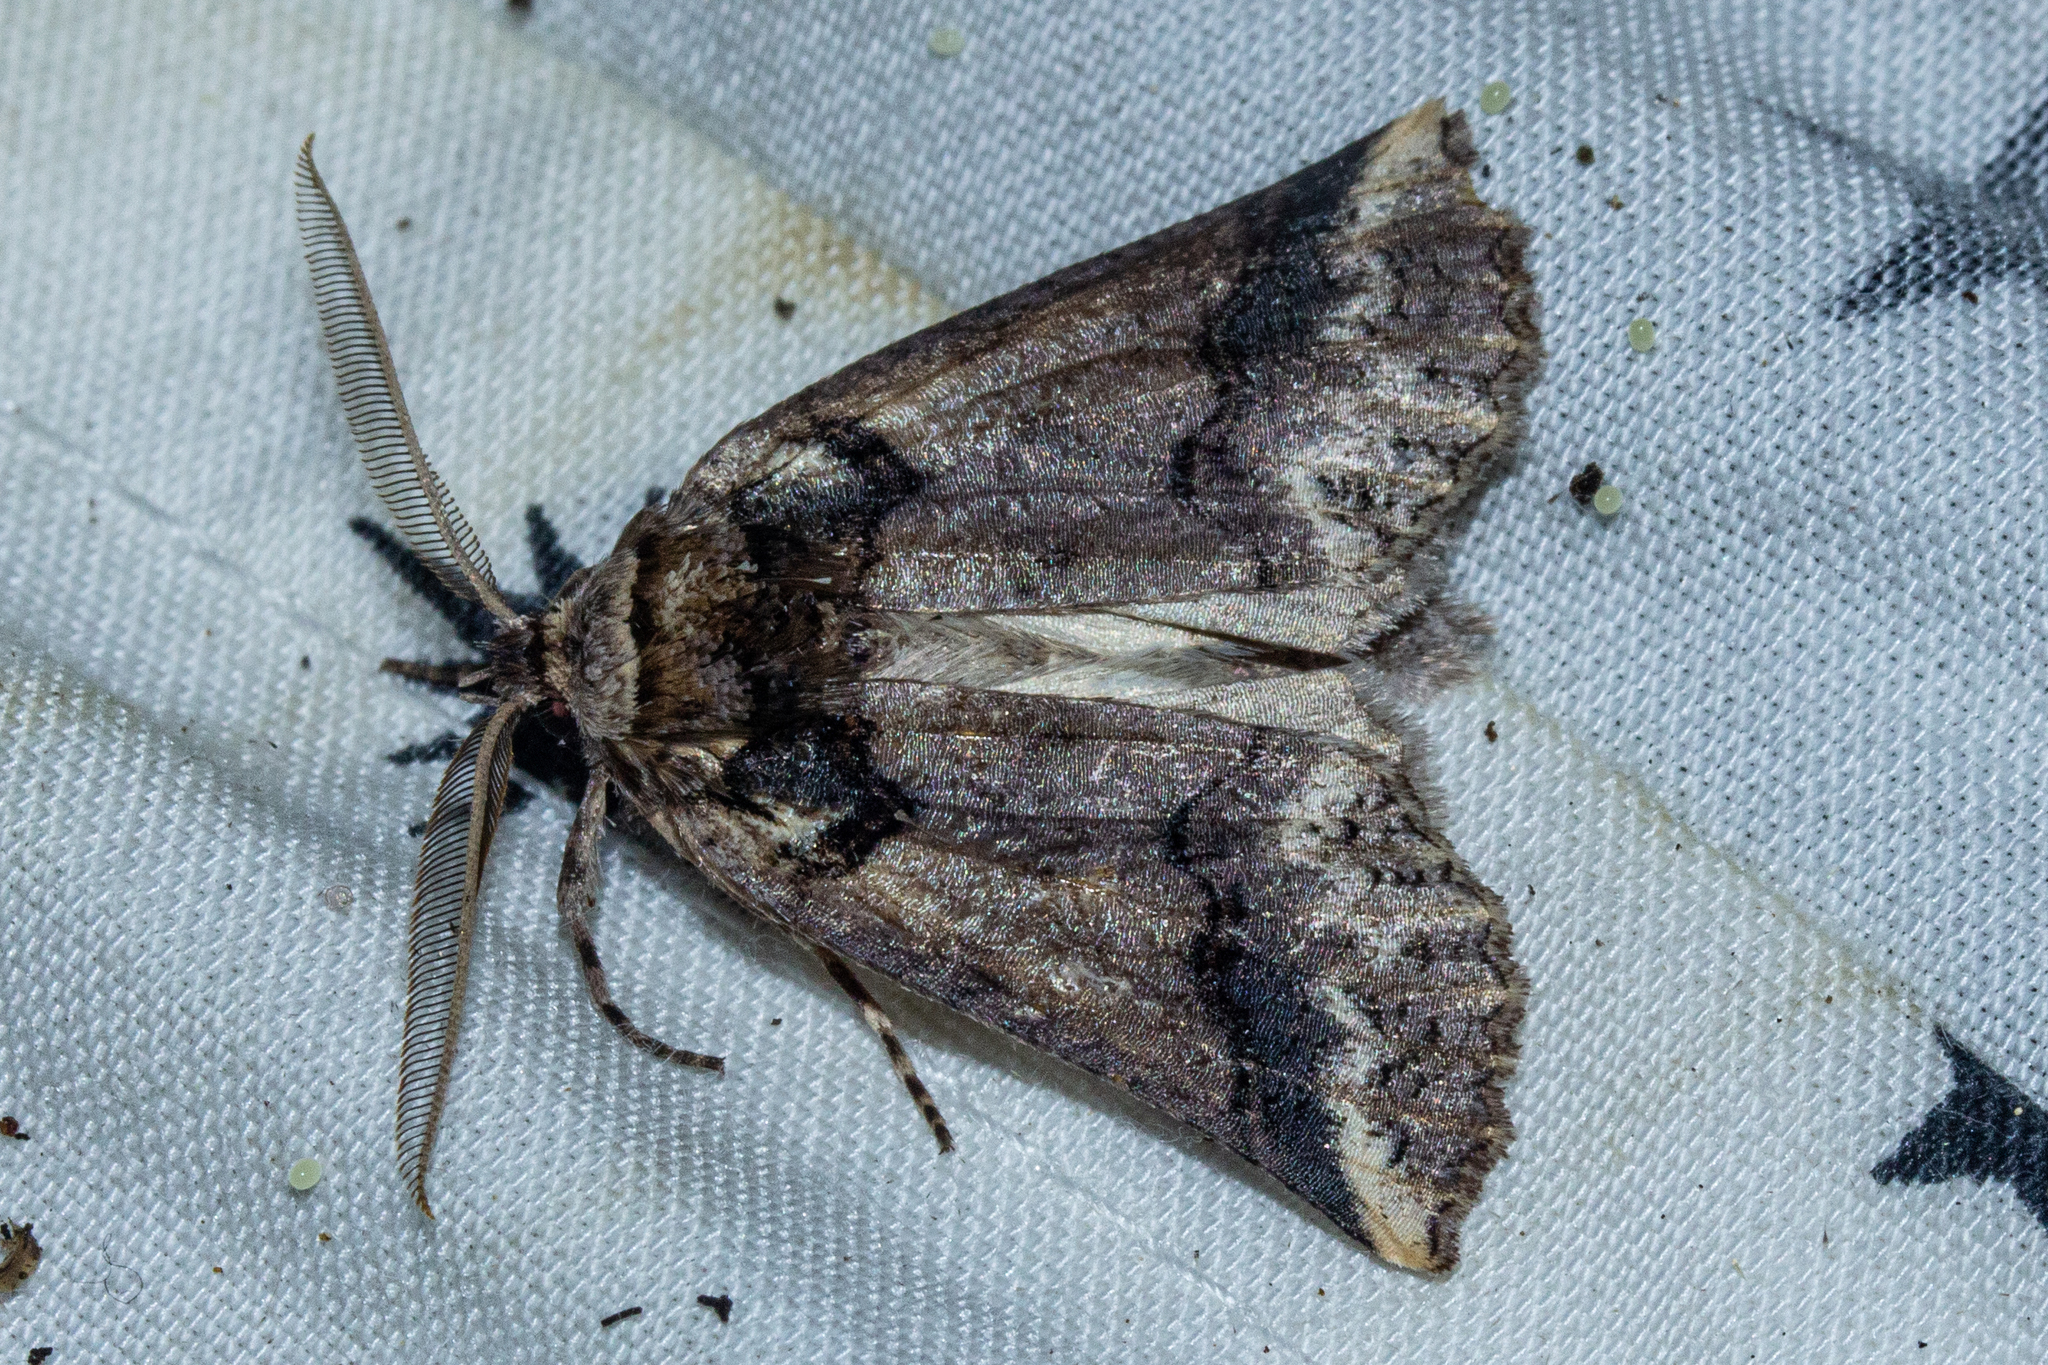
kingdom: Animalia
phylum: Arthropoda
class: Insecta
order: Lepidoptera
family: Geometridae
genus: Declana
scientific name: Declana
